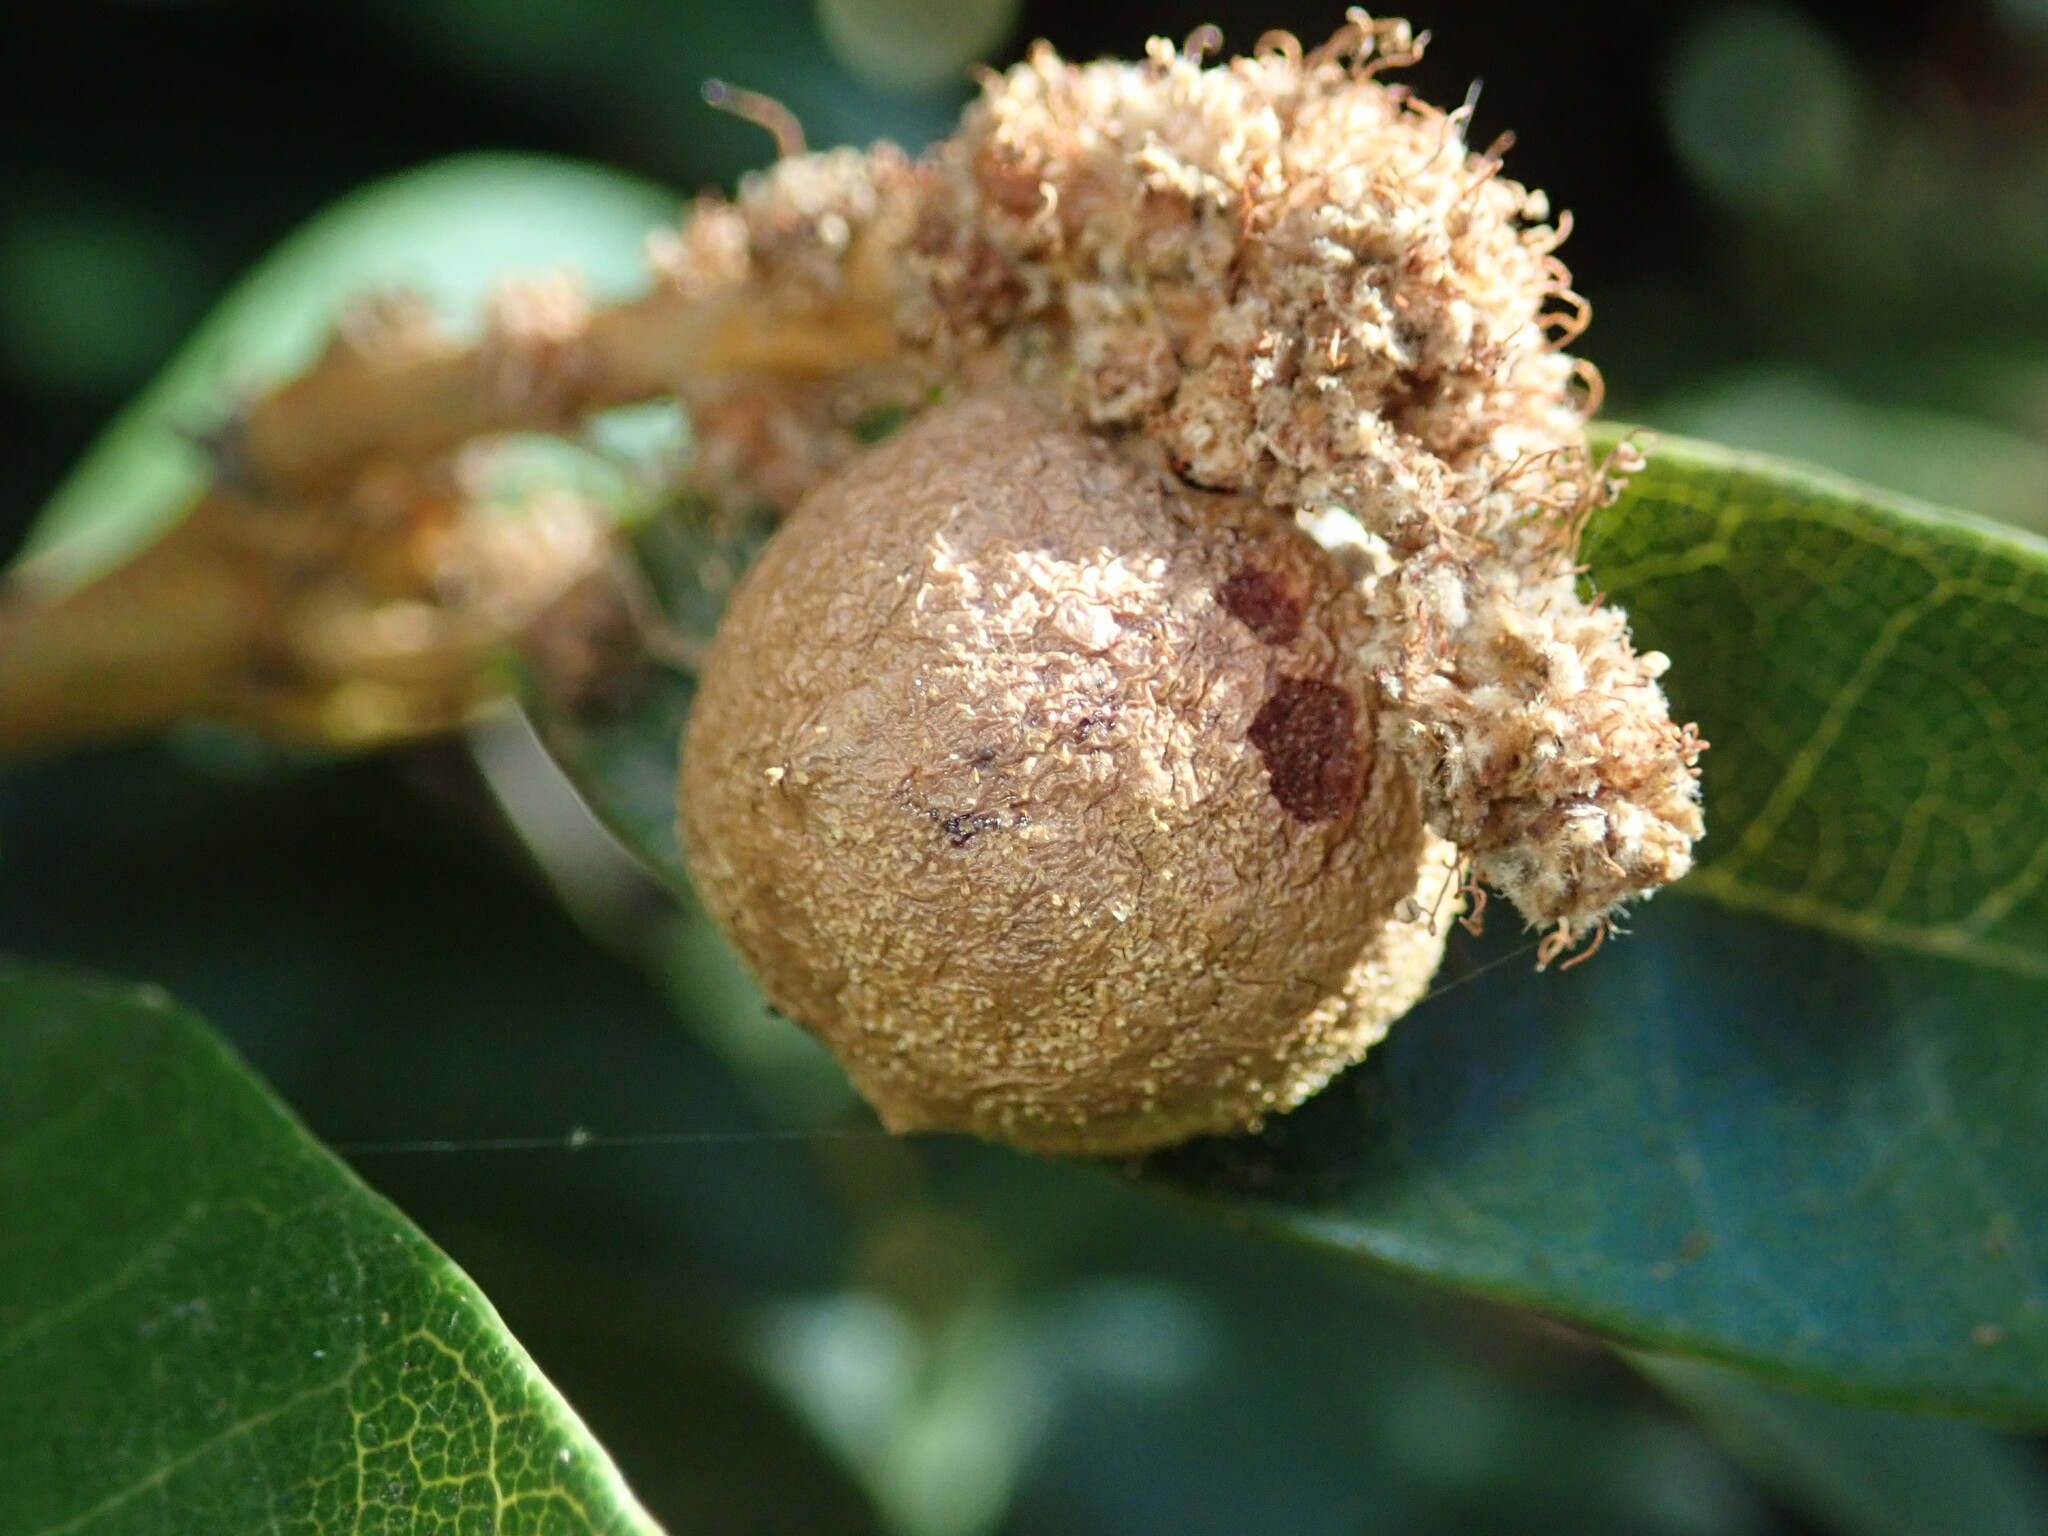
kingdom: Animalia
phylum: Arthropoda
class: Insecta
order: Hymenoptera
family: Cynipidae
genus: Synergus
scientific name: Synergus castanopsidis
